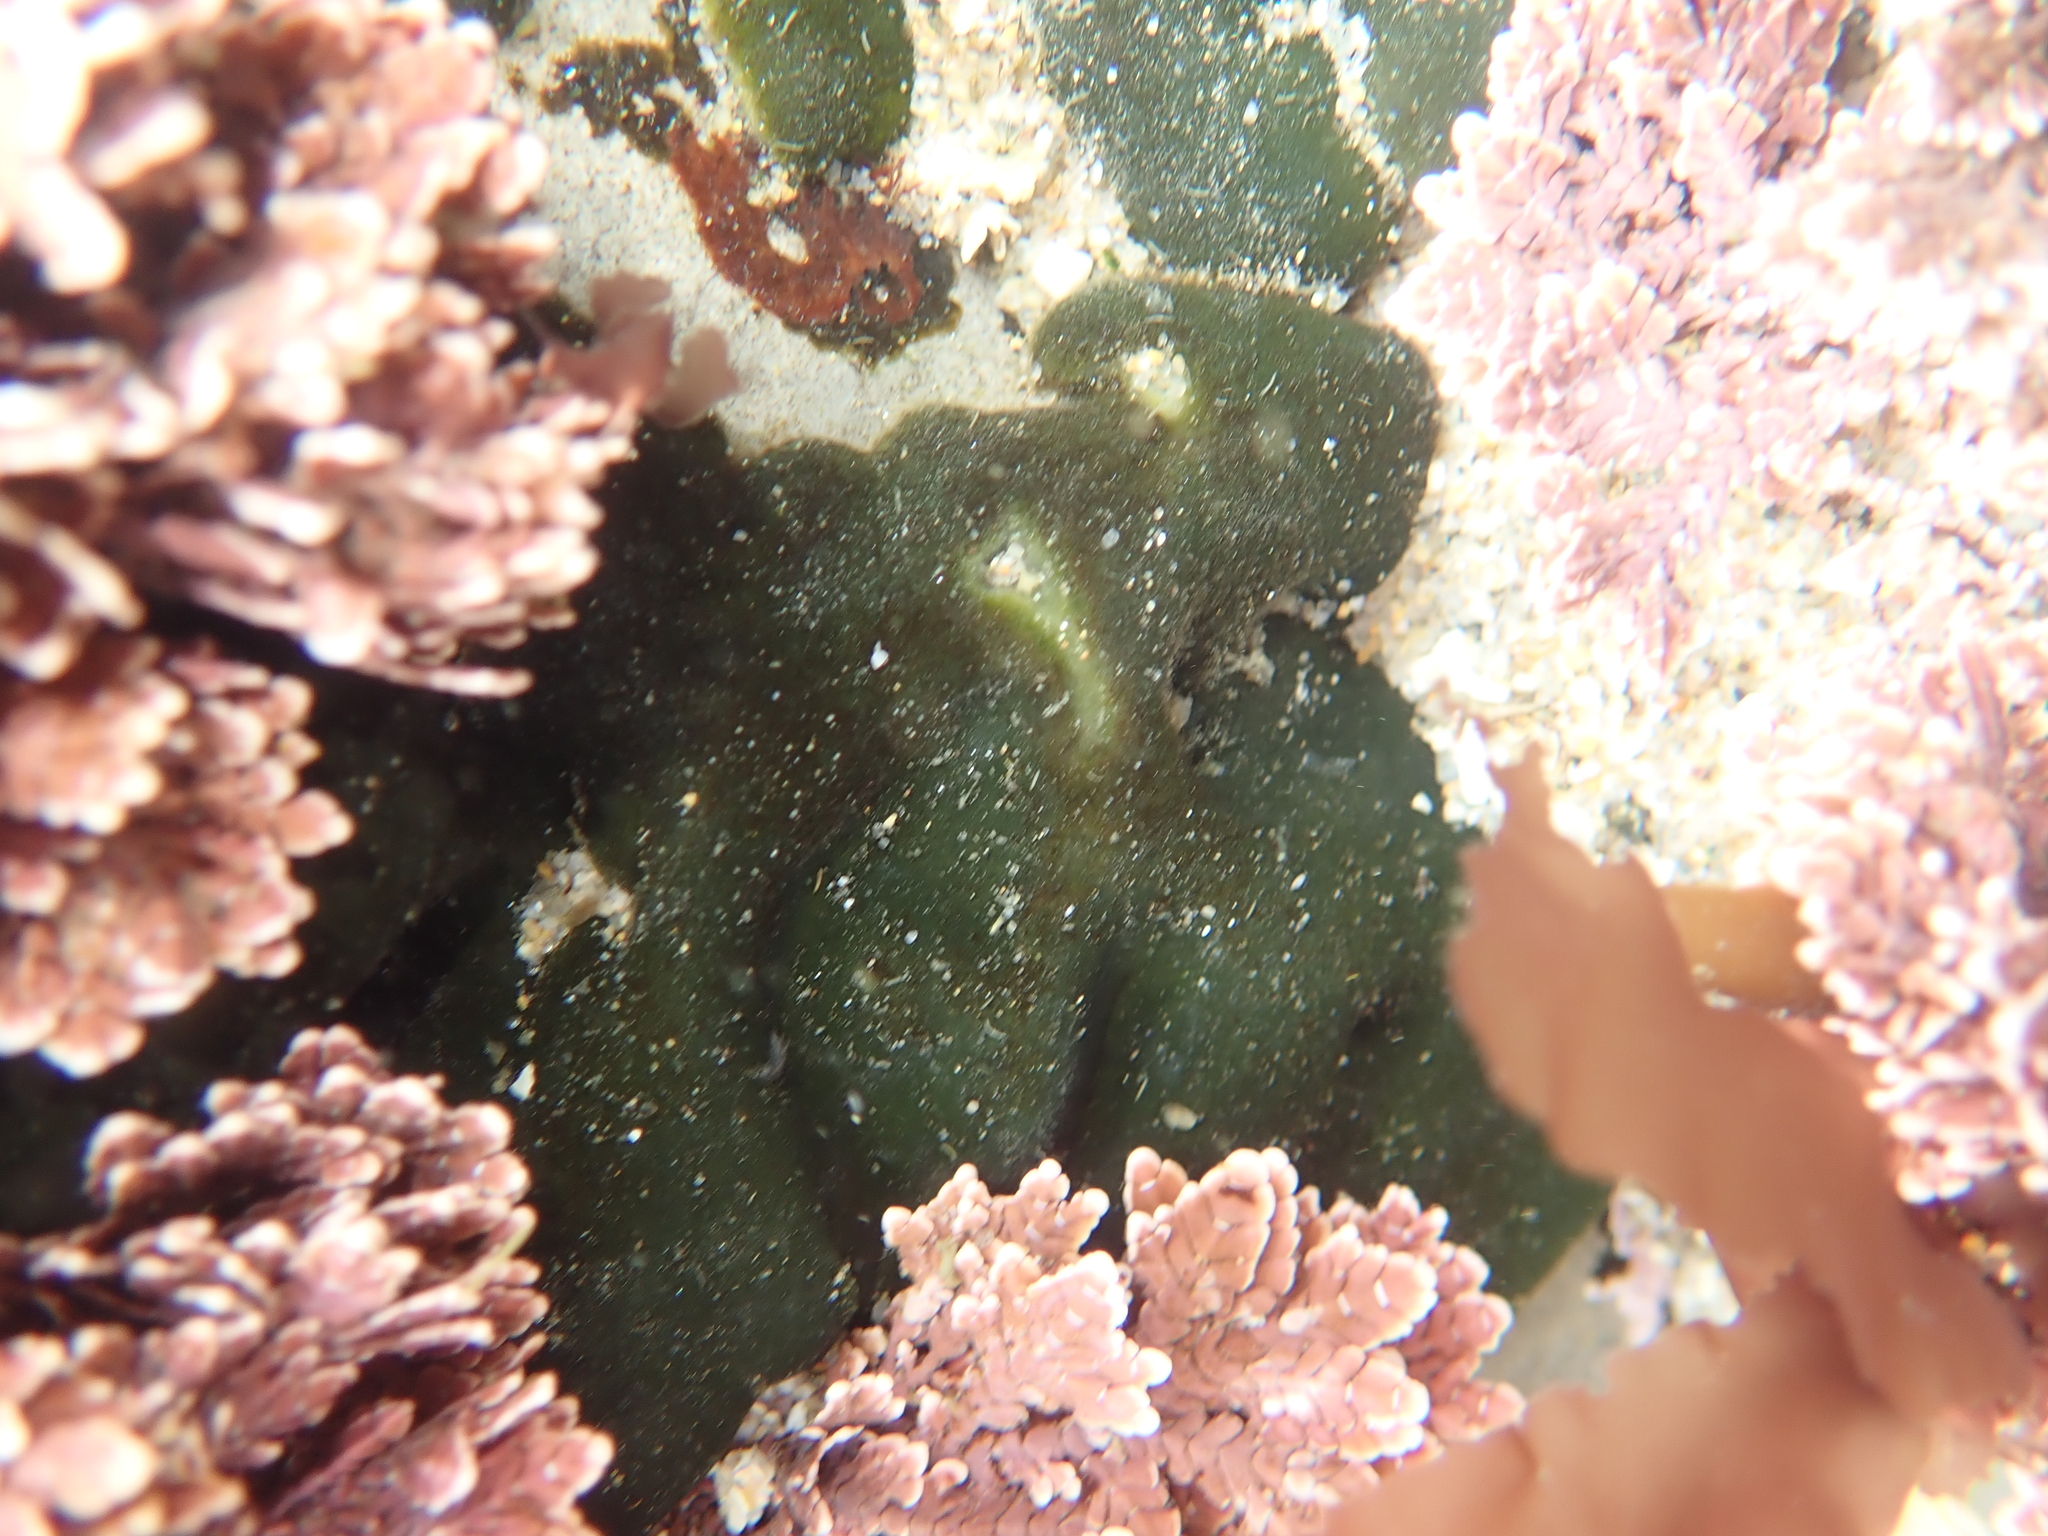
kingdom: Plantae
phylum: Chlorophyta
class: Ulvophyceae
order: Bryopsidales
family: Codiaceae
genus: Codium
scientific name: Codium setchellii
